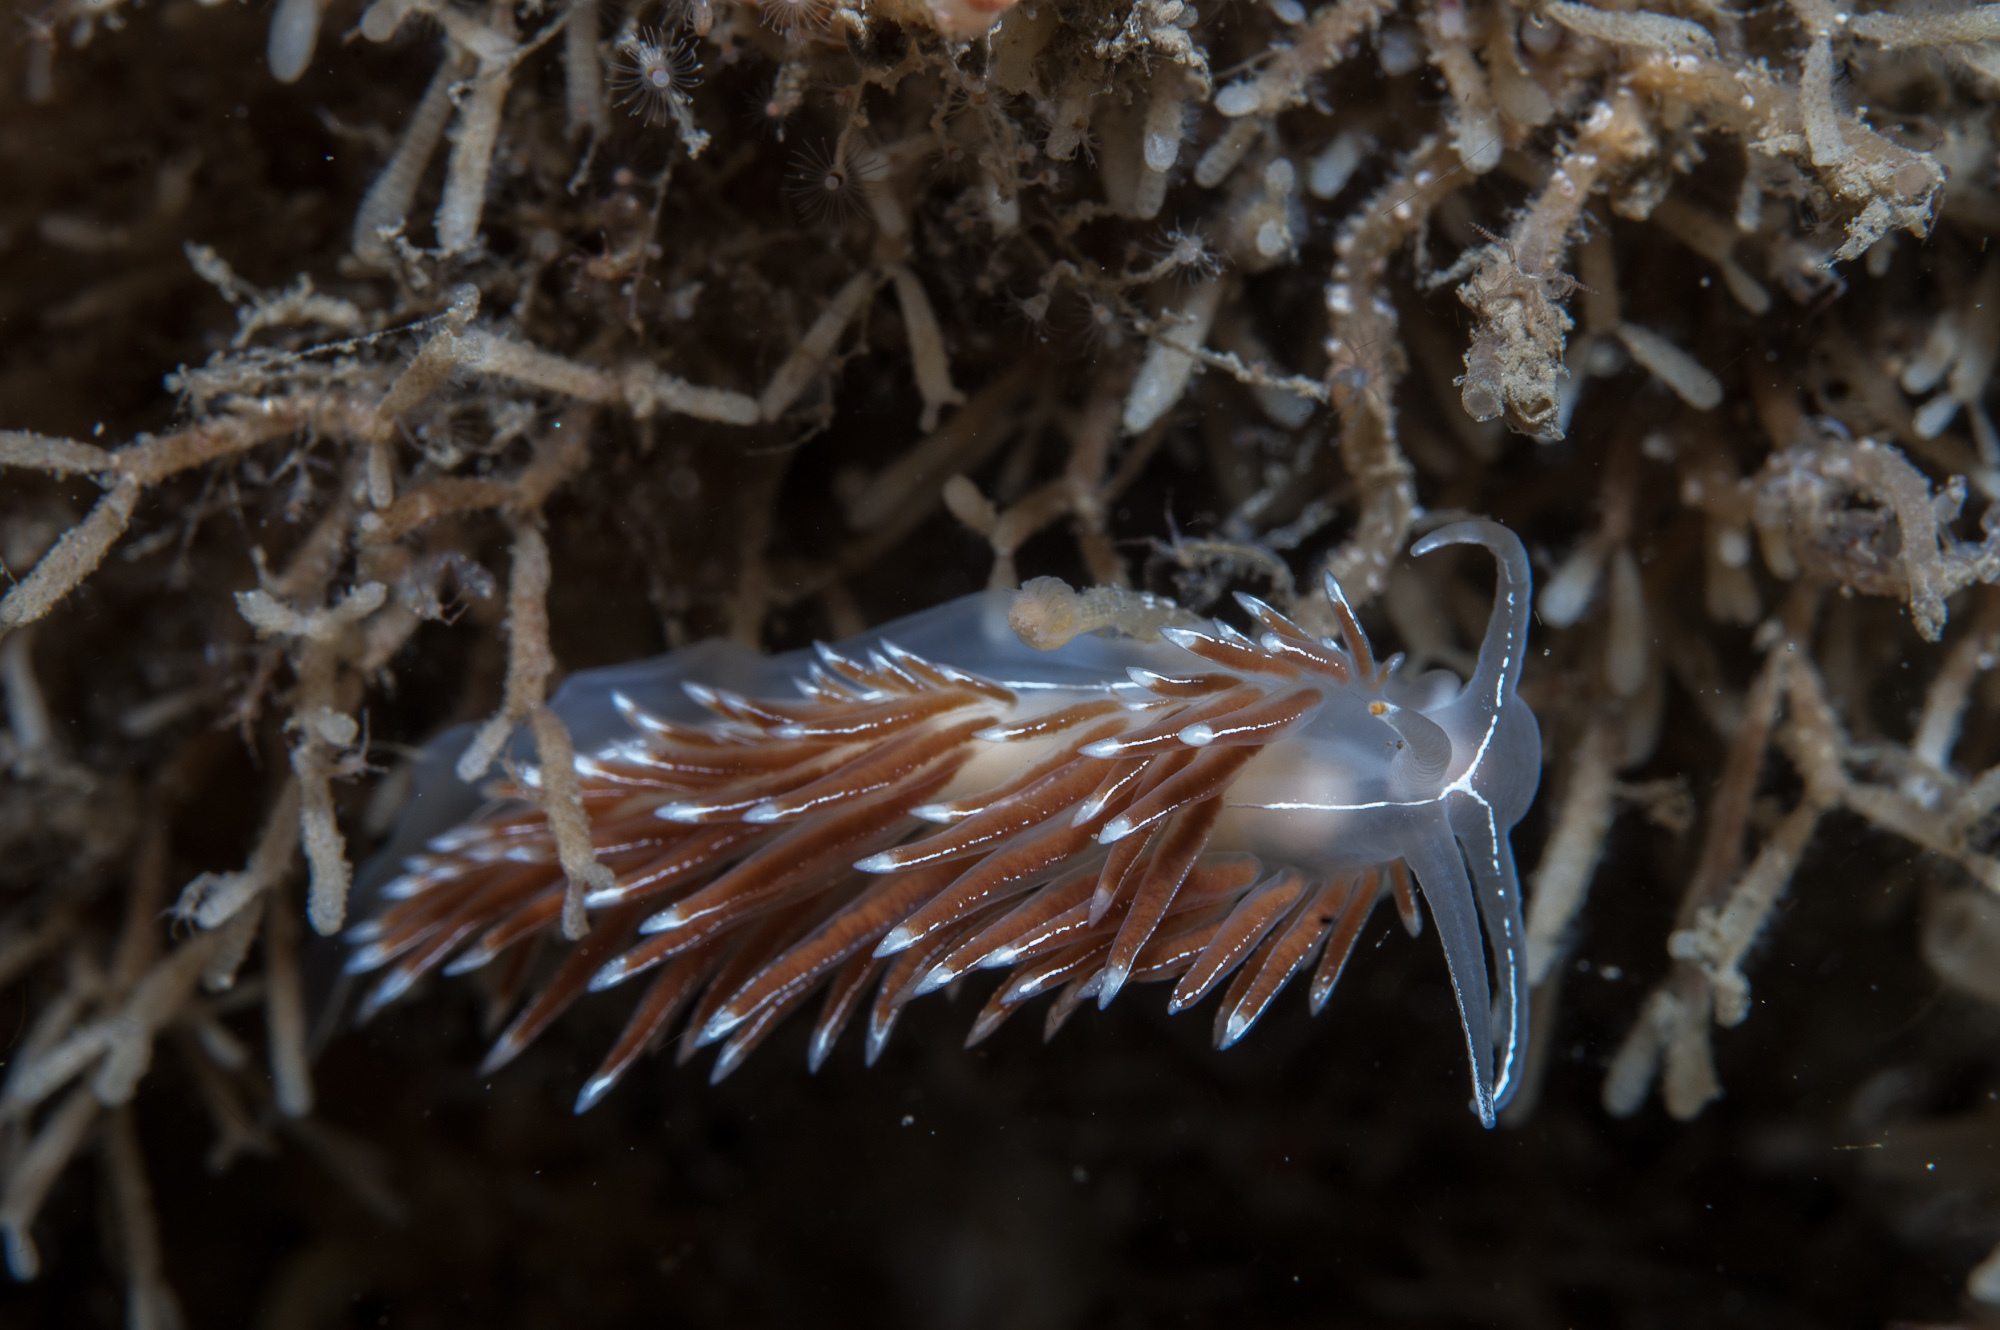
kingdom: Animalia
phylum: Mollusca
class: Gastropoda
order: Nudibranchia
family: Coryphellidae
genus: Coryphella
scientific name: Coryphella chriskaugei
